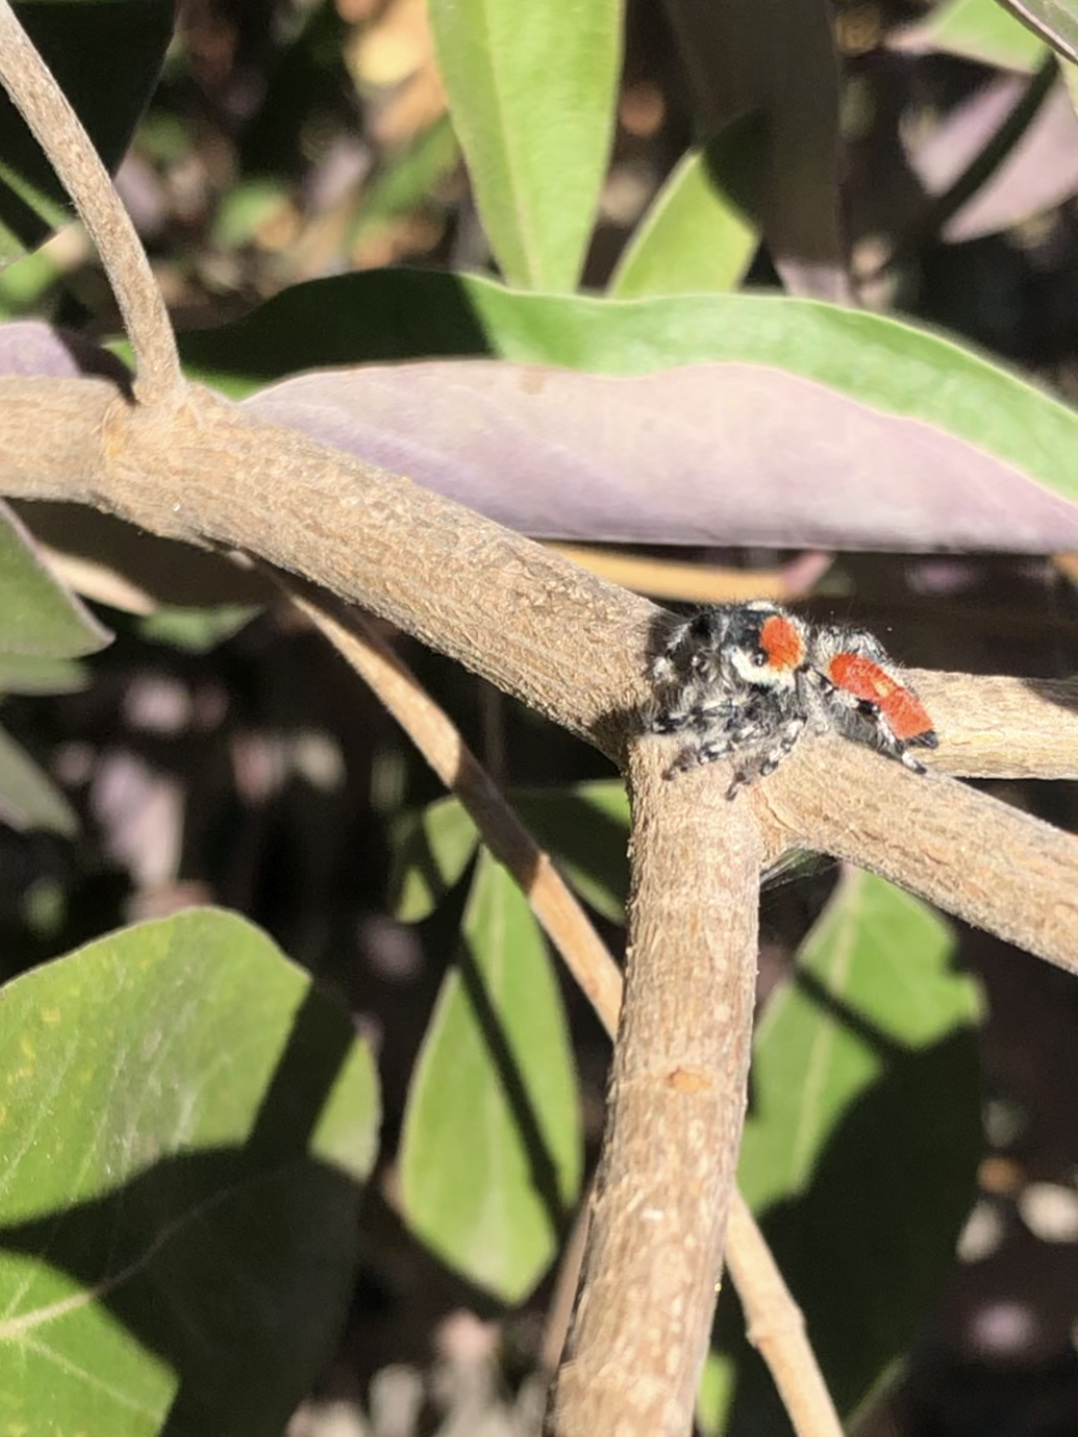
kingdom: Animalia
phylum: Arthropoda
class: Arachnida
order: Araneae
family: Salticidae
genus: Phidippus
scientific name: Phidippus adumbratus
